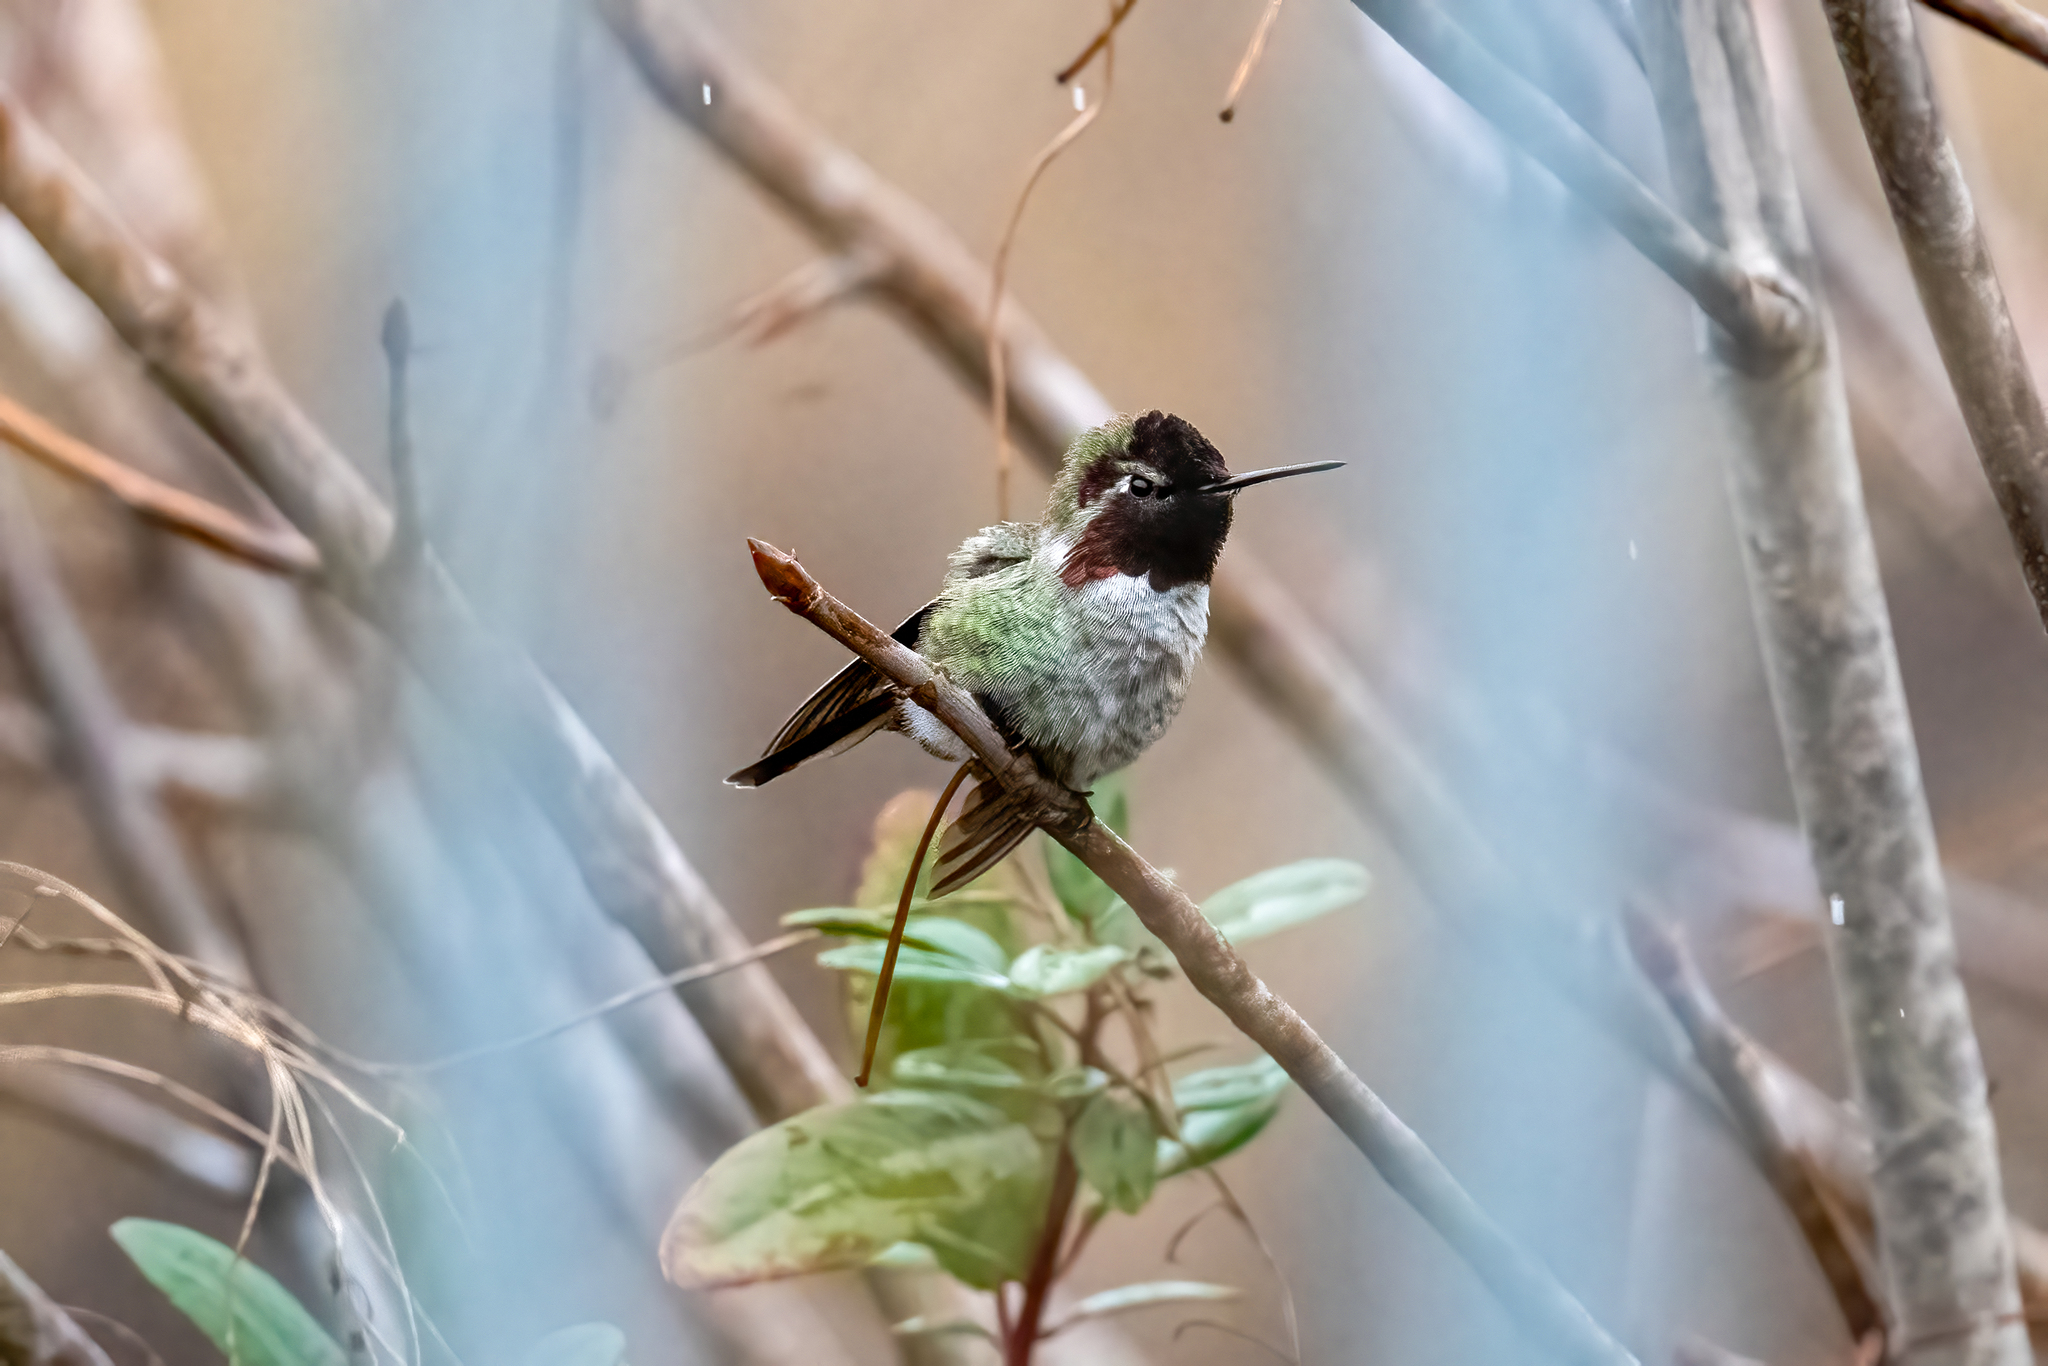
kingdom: Animalia
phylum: Chordata
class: Aves
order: Apodiformes
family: Trochilidae
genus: Calypte
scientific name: Calypte anna
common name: Anna's hummingbird
